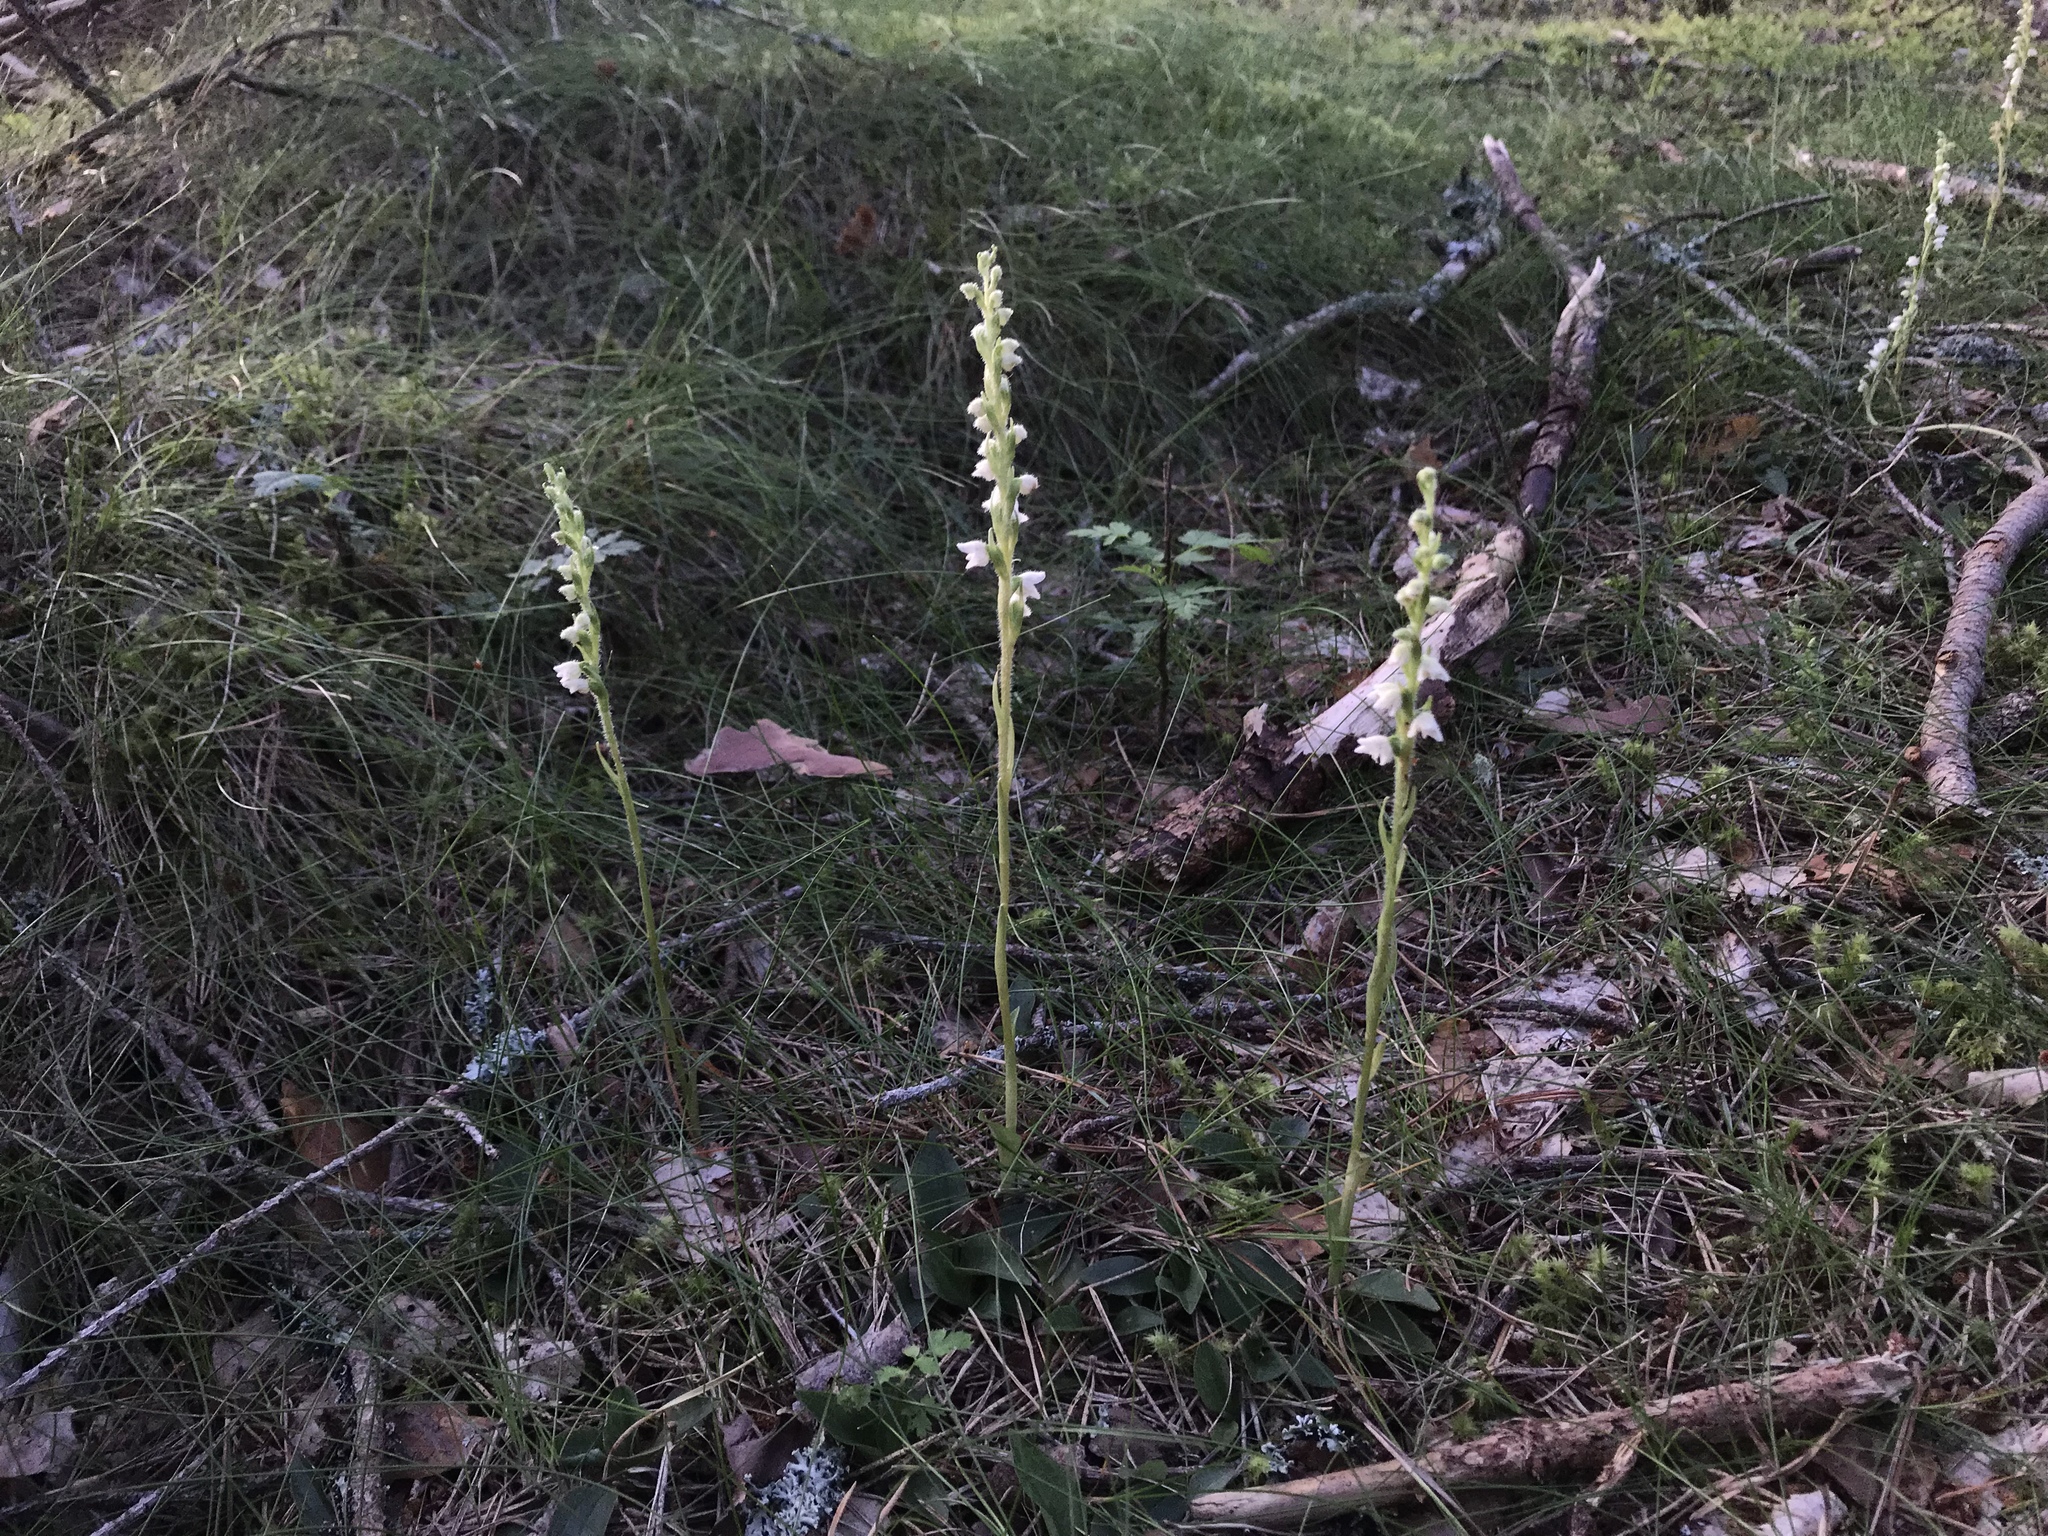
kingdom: Plantae
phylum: Tracheophyta
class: Liliopsida
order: Asparagales
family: Orchidaceae
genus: Goodyera
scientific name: Goodyera repens
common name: Creeping lady's-tresses
